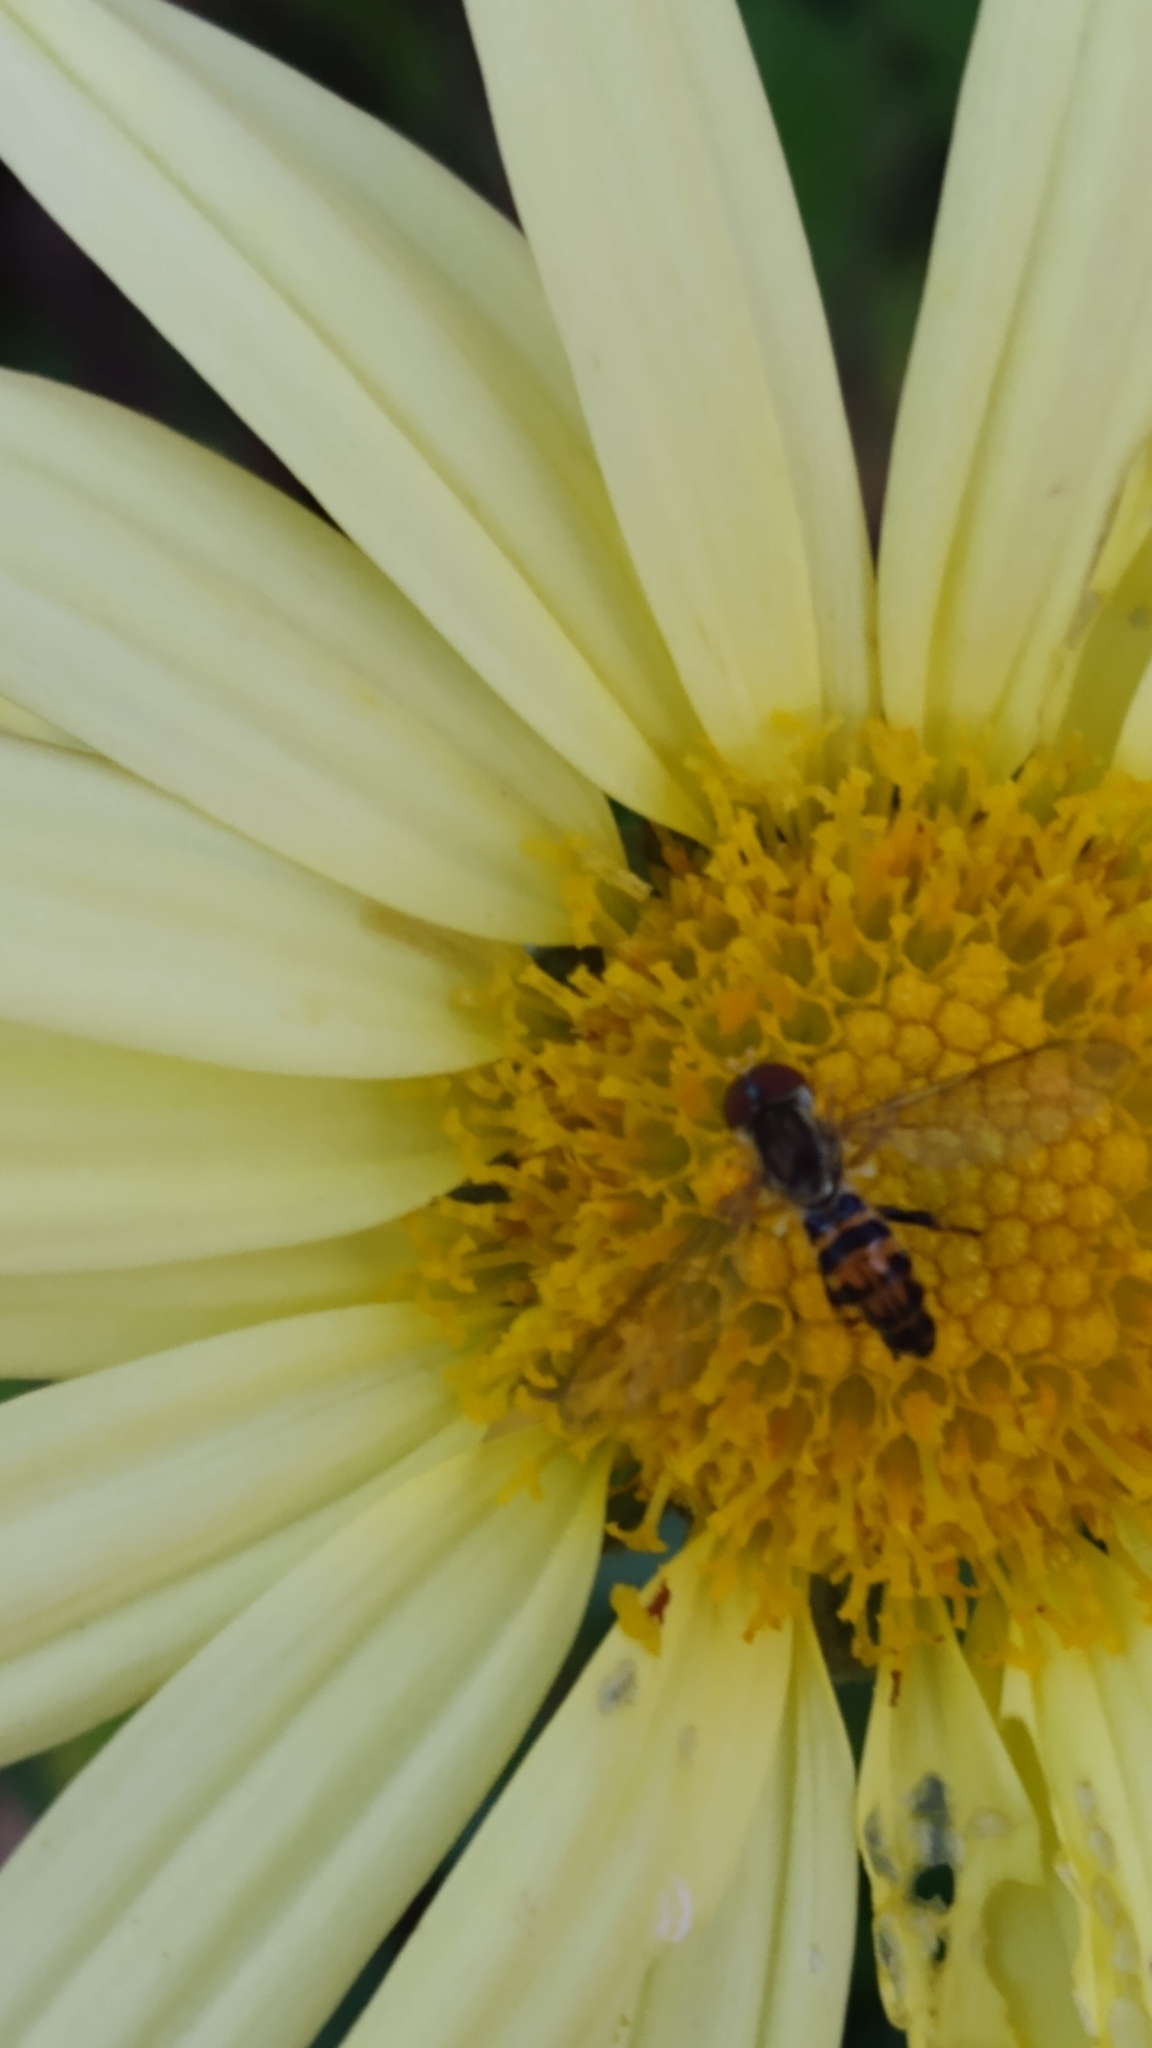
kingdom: Animalia
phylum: Arthropoda
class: Insecta
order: Diptera
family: Syrphidae
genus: Toxomerus
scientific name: Toxomerus geminatus
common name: Eastern calligrapher
